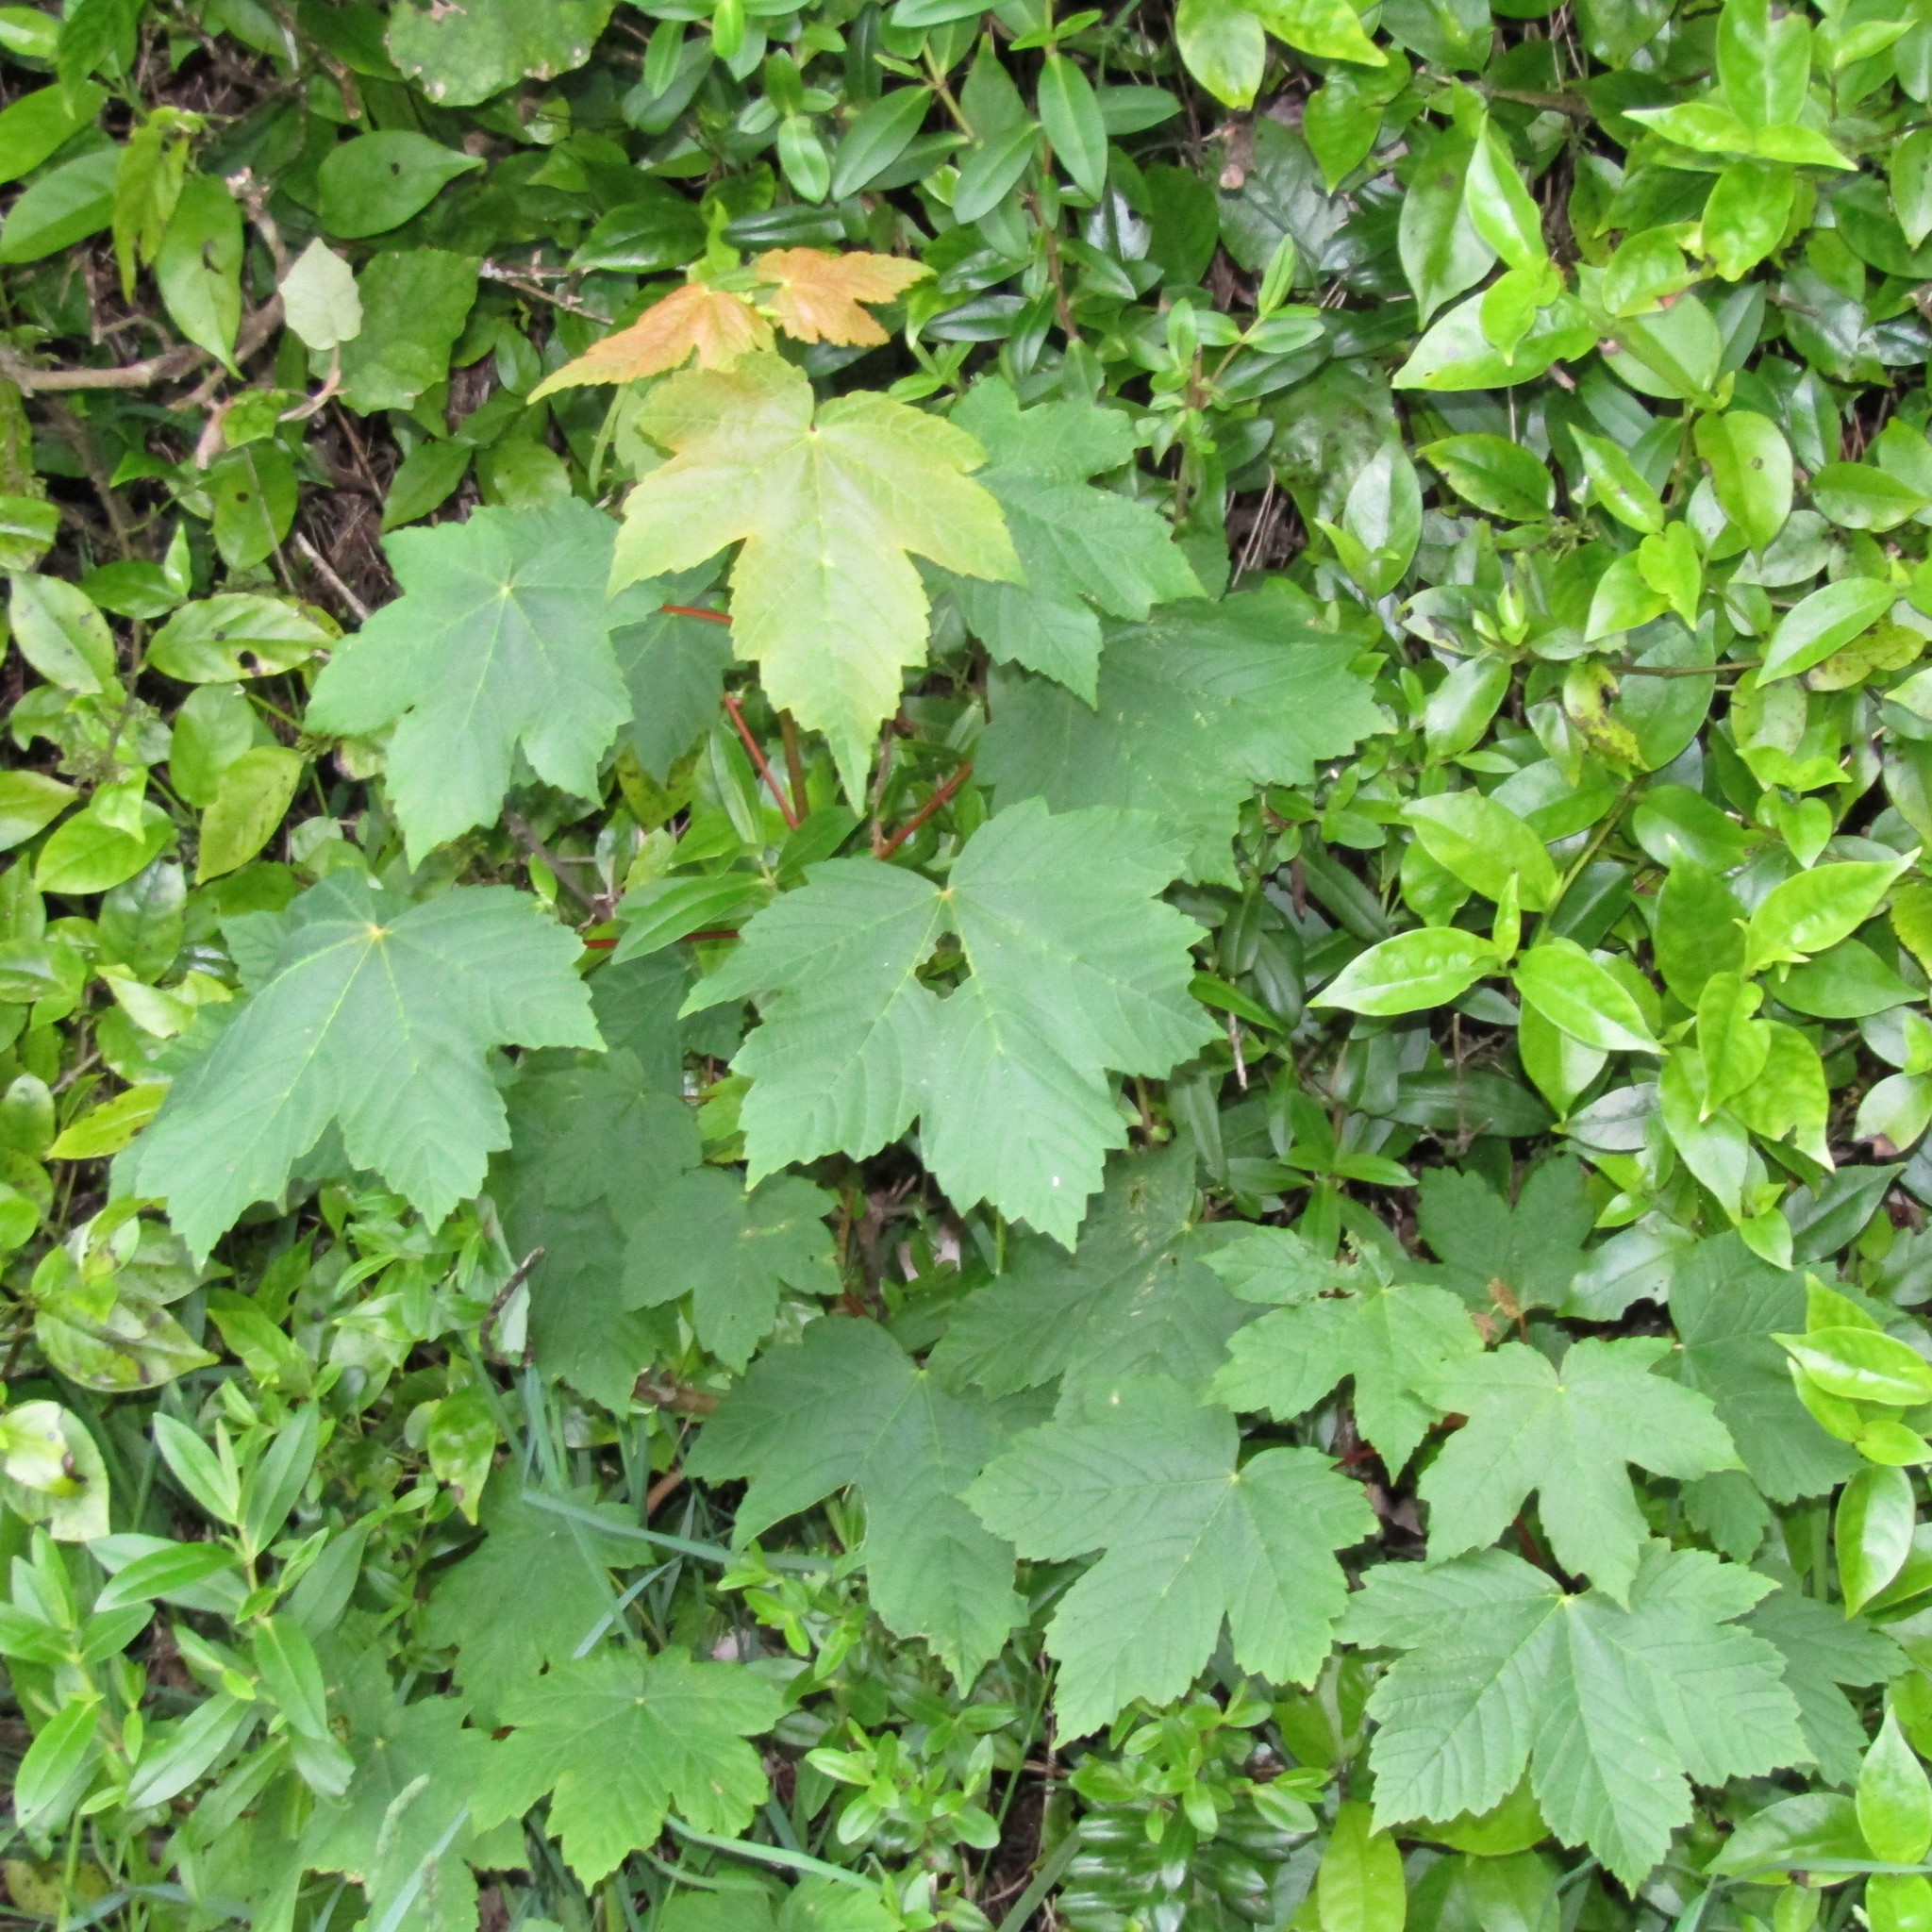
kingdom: Plantae
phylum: Tracheophyta
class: Magnoliopsida
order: Sapindales
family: Sapindaceae
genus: Acer
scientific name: Acer pseudoplatanus
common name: Sycamore
